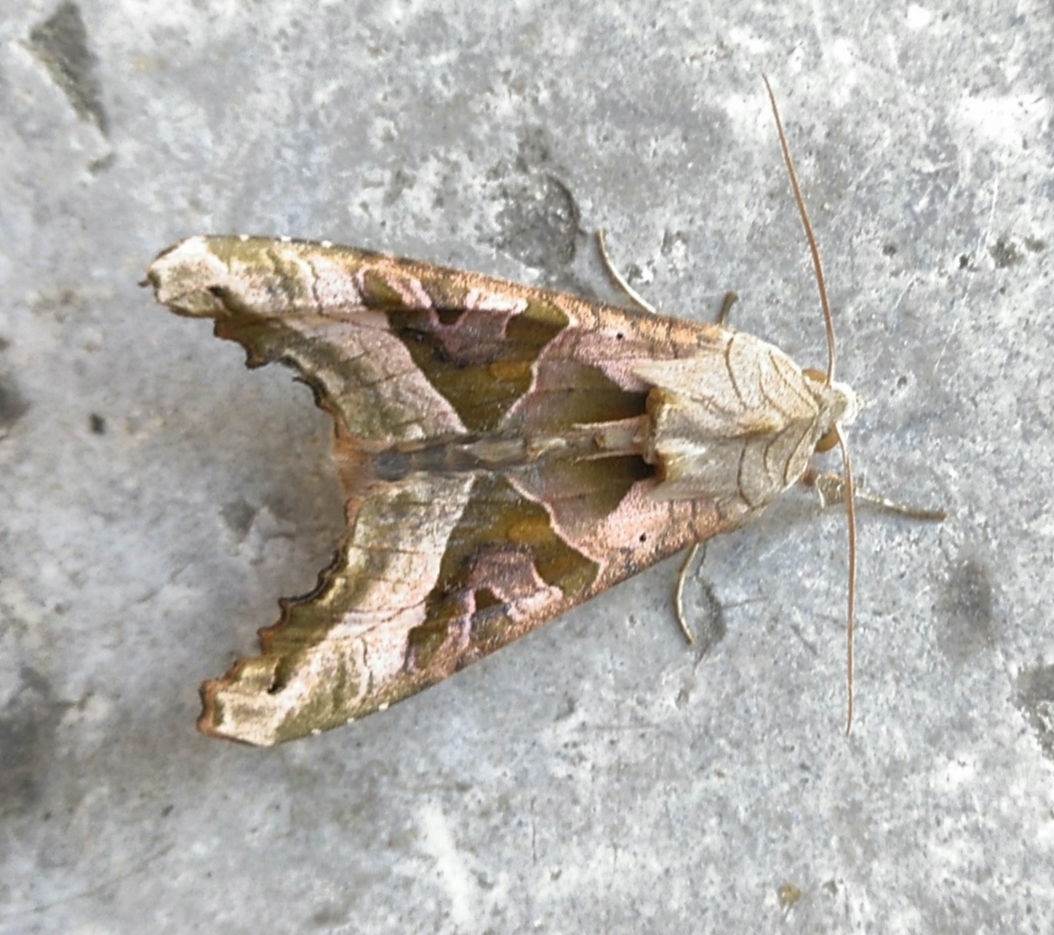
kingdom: Animalia
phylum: Arthropoda
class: Insecta
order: Lepidoptera
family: Noctuidae
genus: Phlogophora
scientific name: Phlogophora meticulosa
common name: Angle shades
